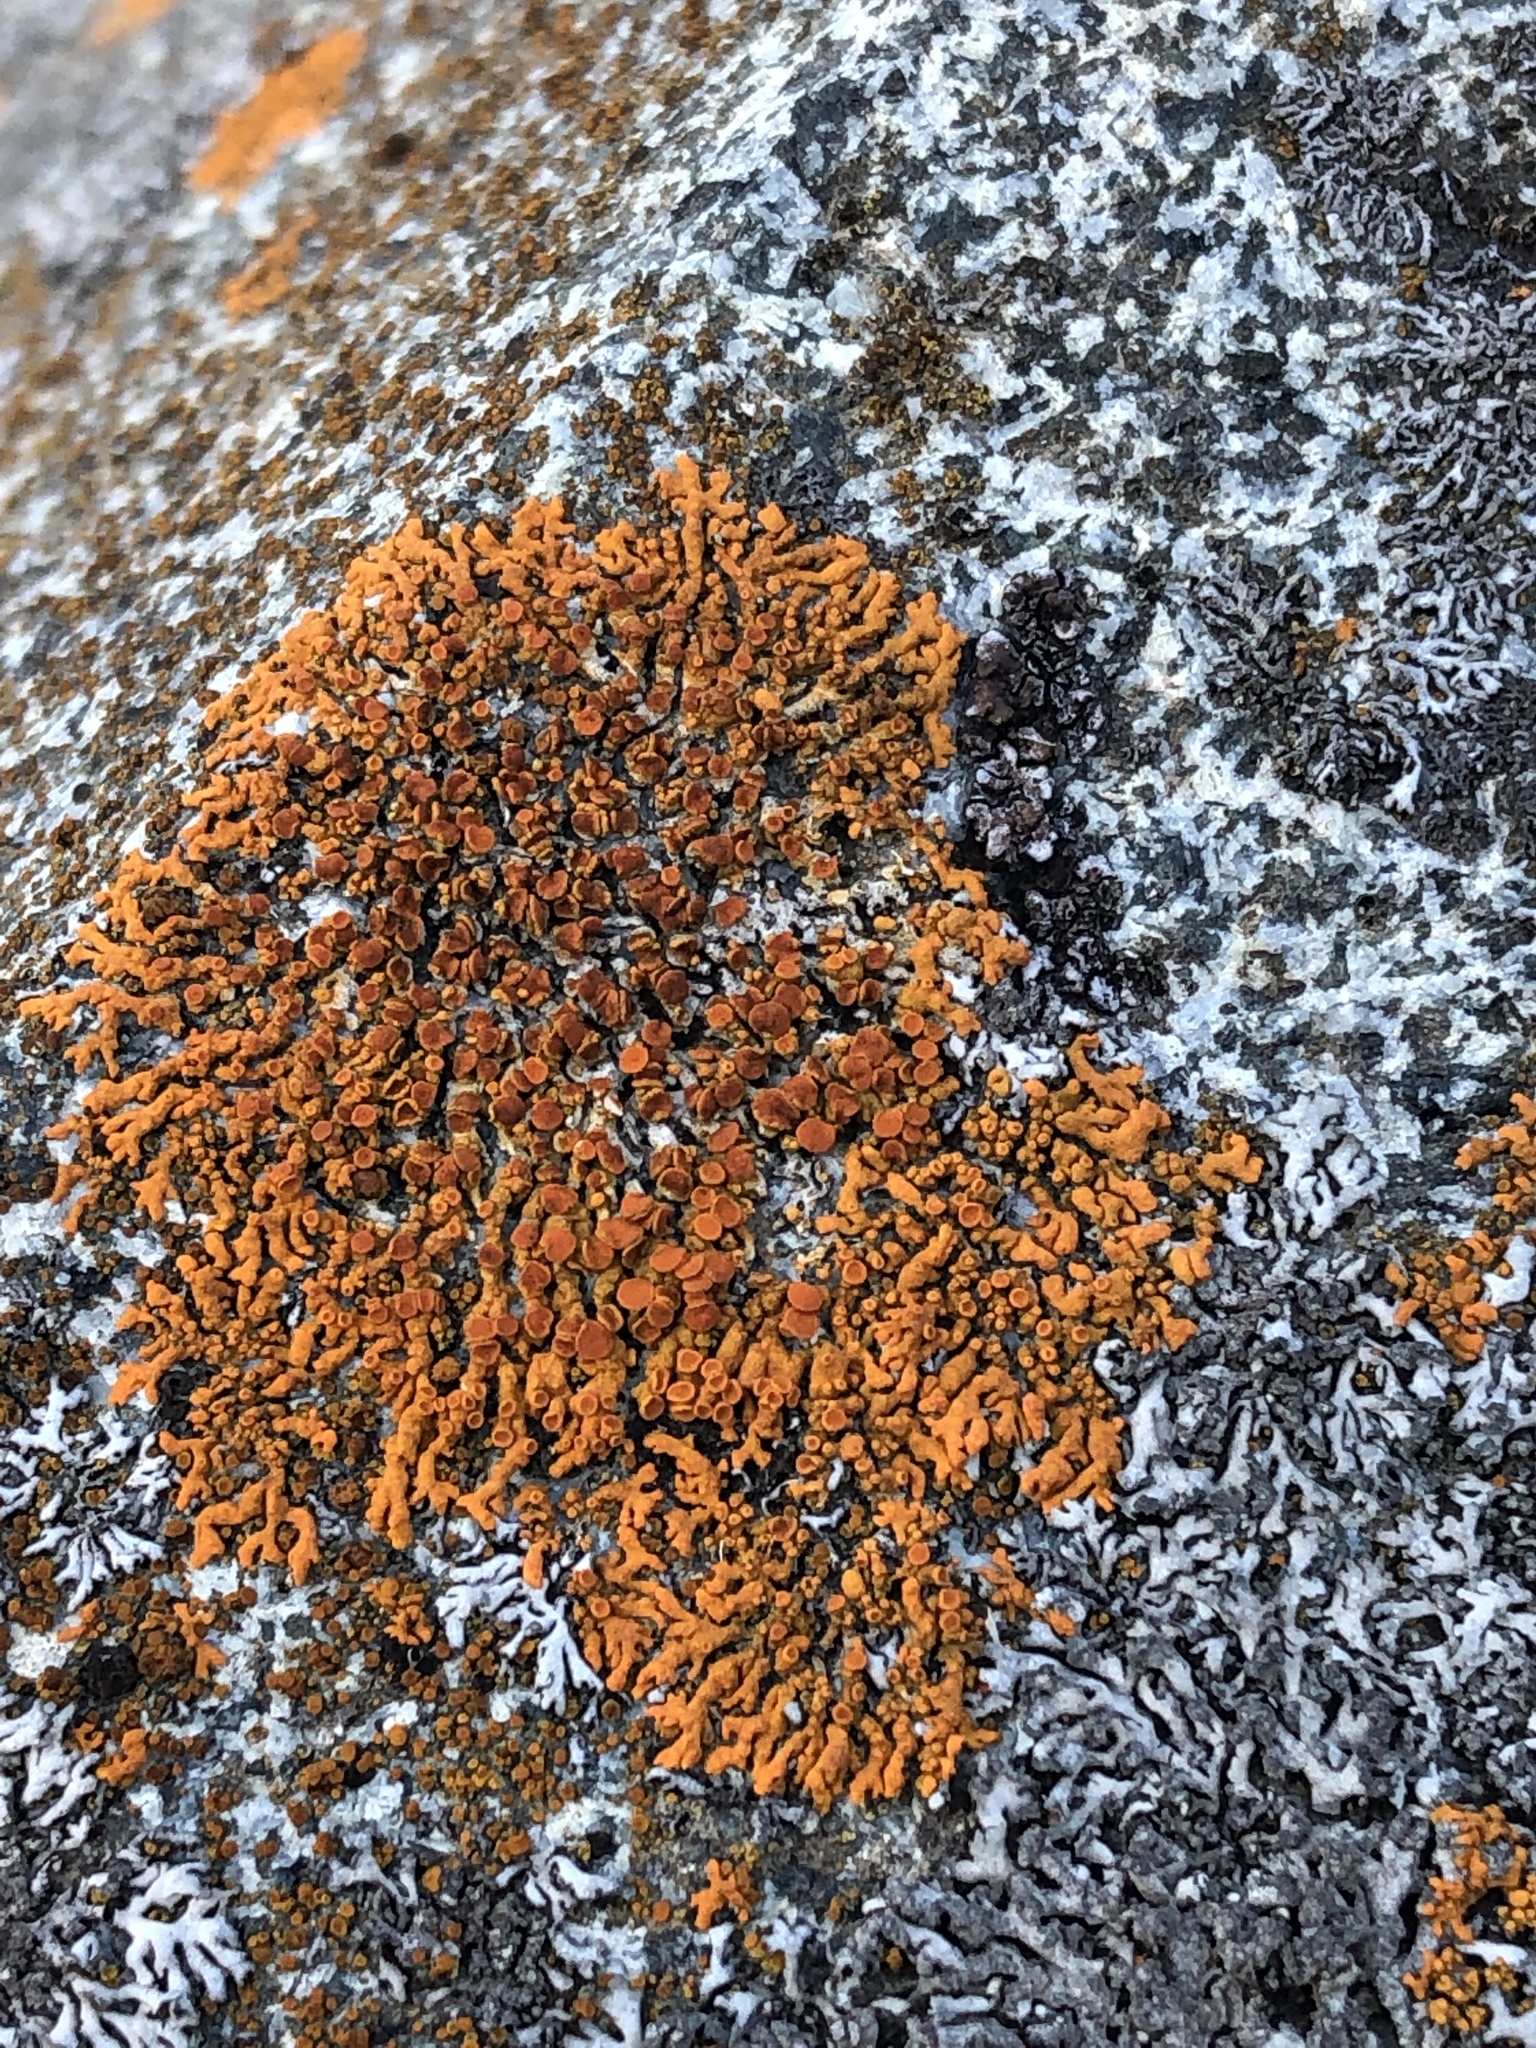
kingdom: Fungi
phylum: Ascomycota
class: Lecanoromycetes
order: Teloschistales
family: Teloschistaceae
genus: Xanthoria
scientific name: Xanthoria elegans
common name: Elegant sunburst lichen
